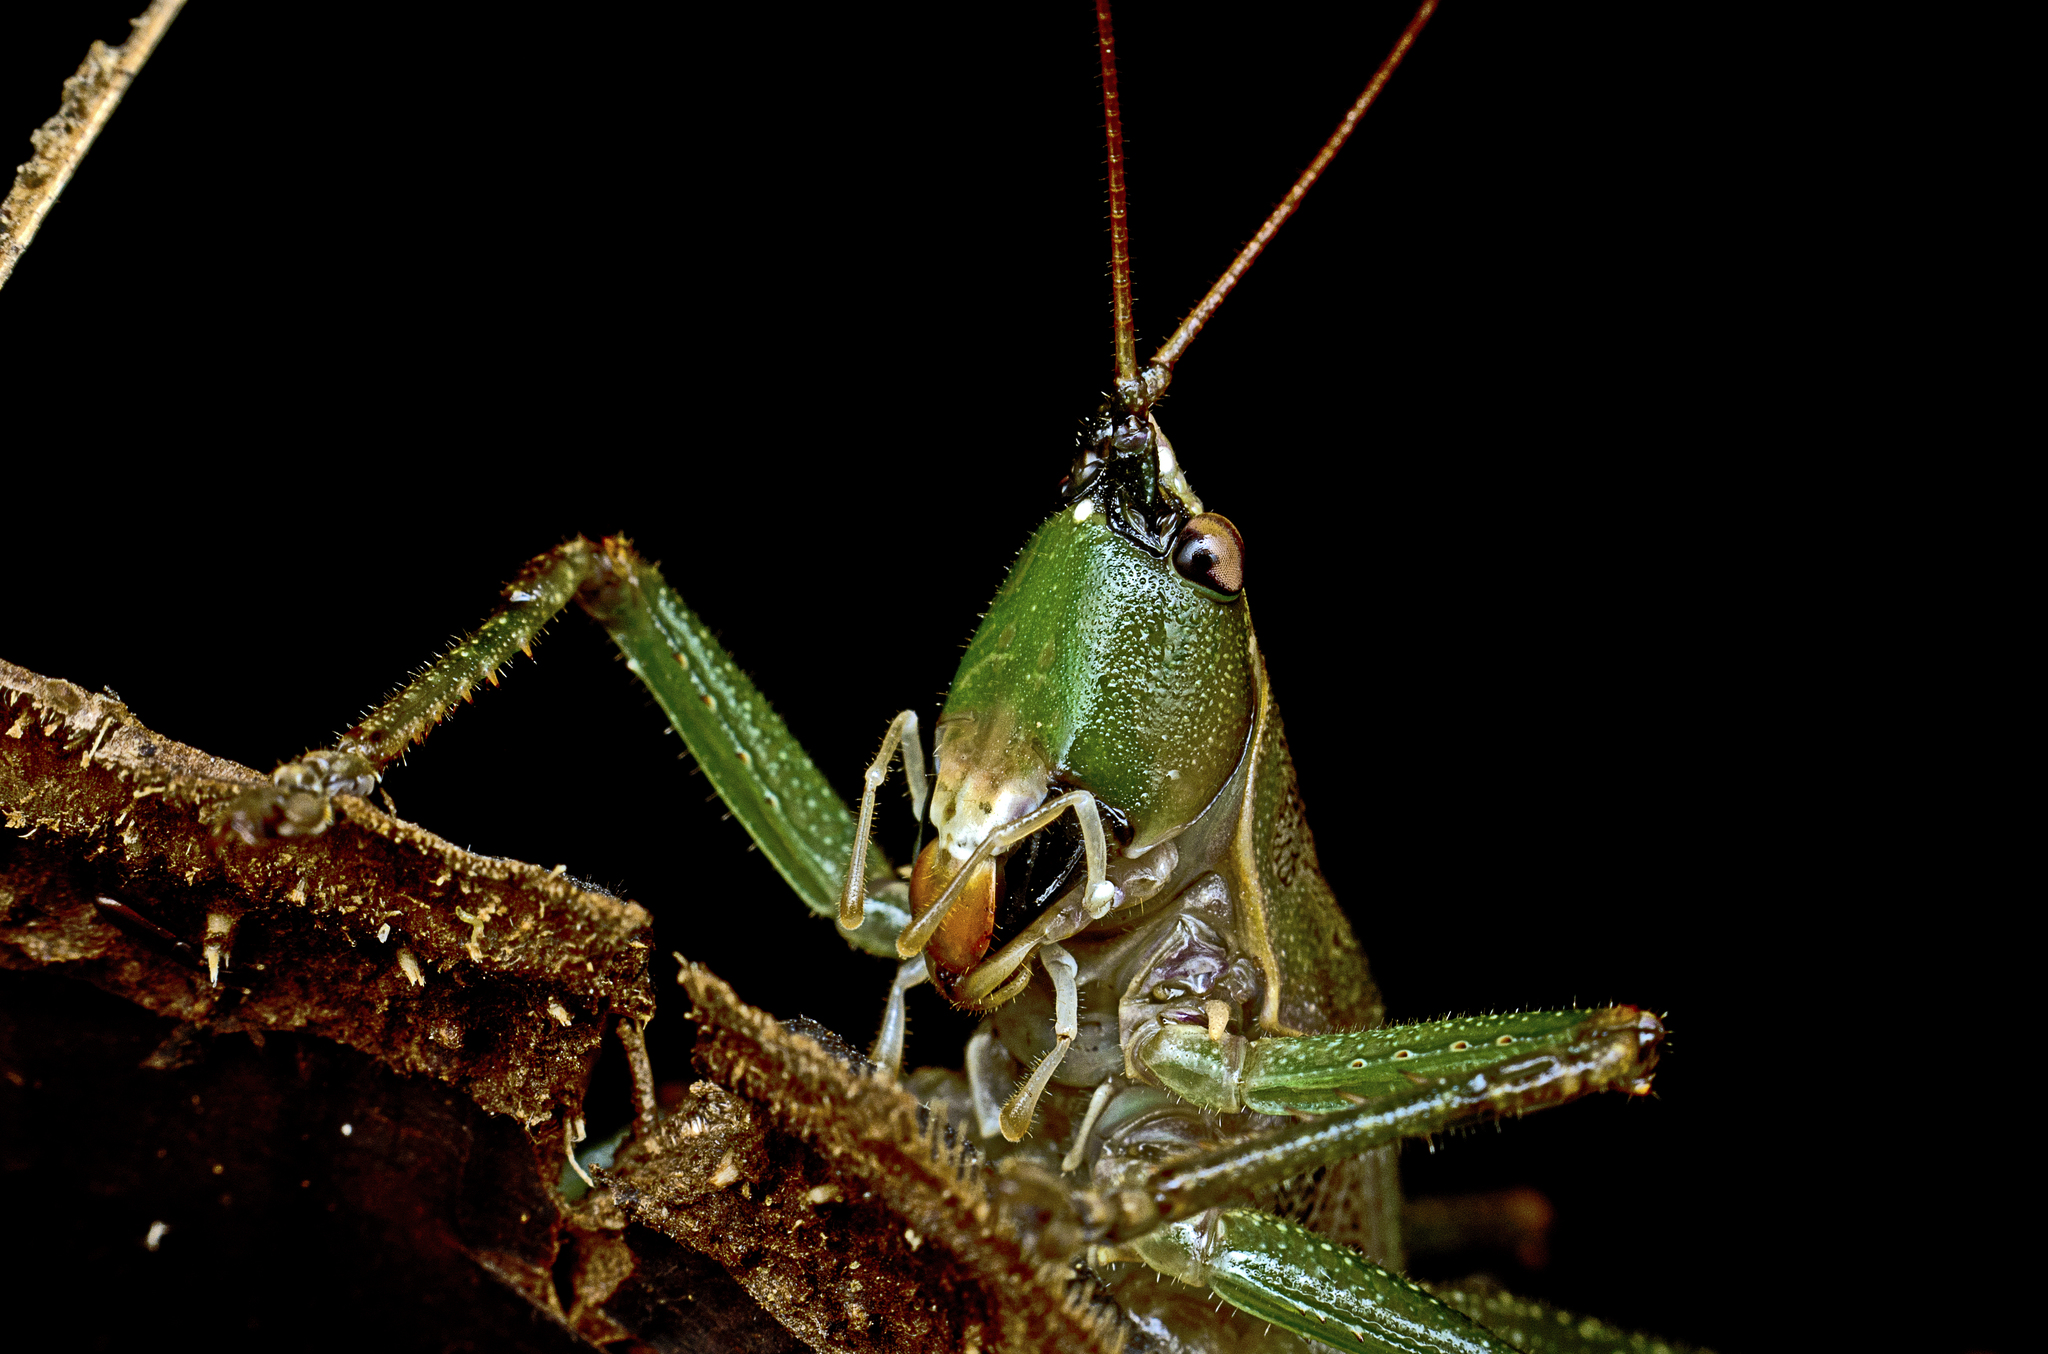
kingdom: Animalia
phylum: Arthropoda
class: Insecta
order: Orthoptera
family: Tettigoniidae
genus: Austrosalomona
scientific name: Austrosalomona falcata
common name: Olive-green coastal katydid
